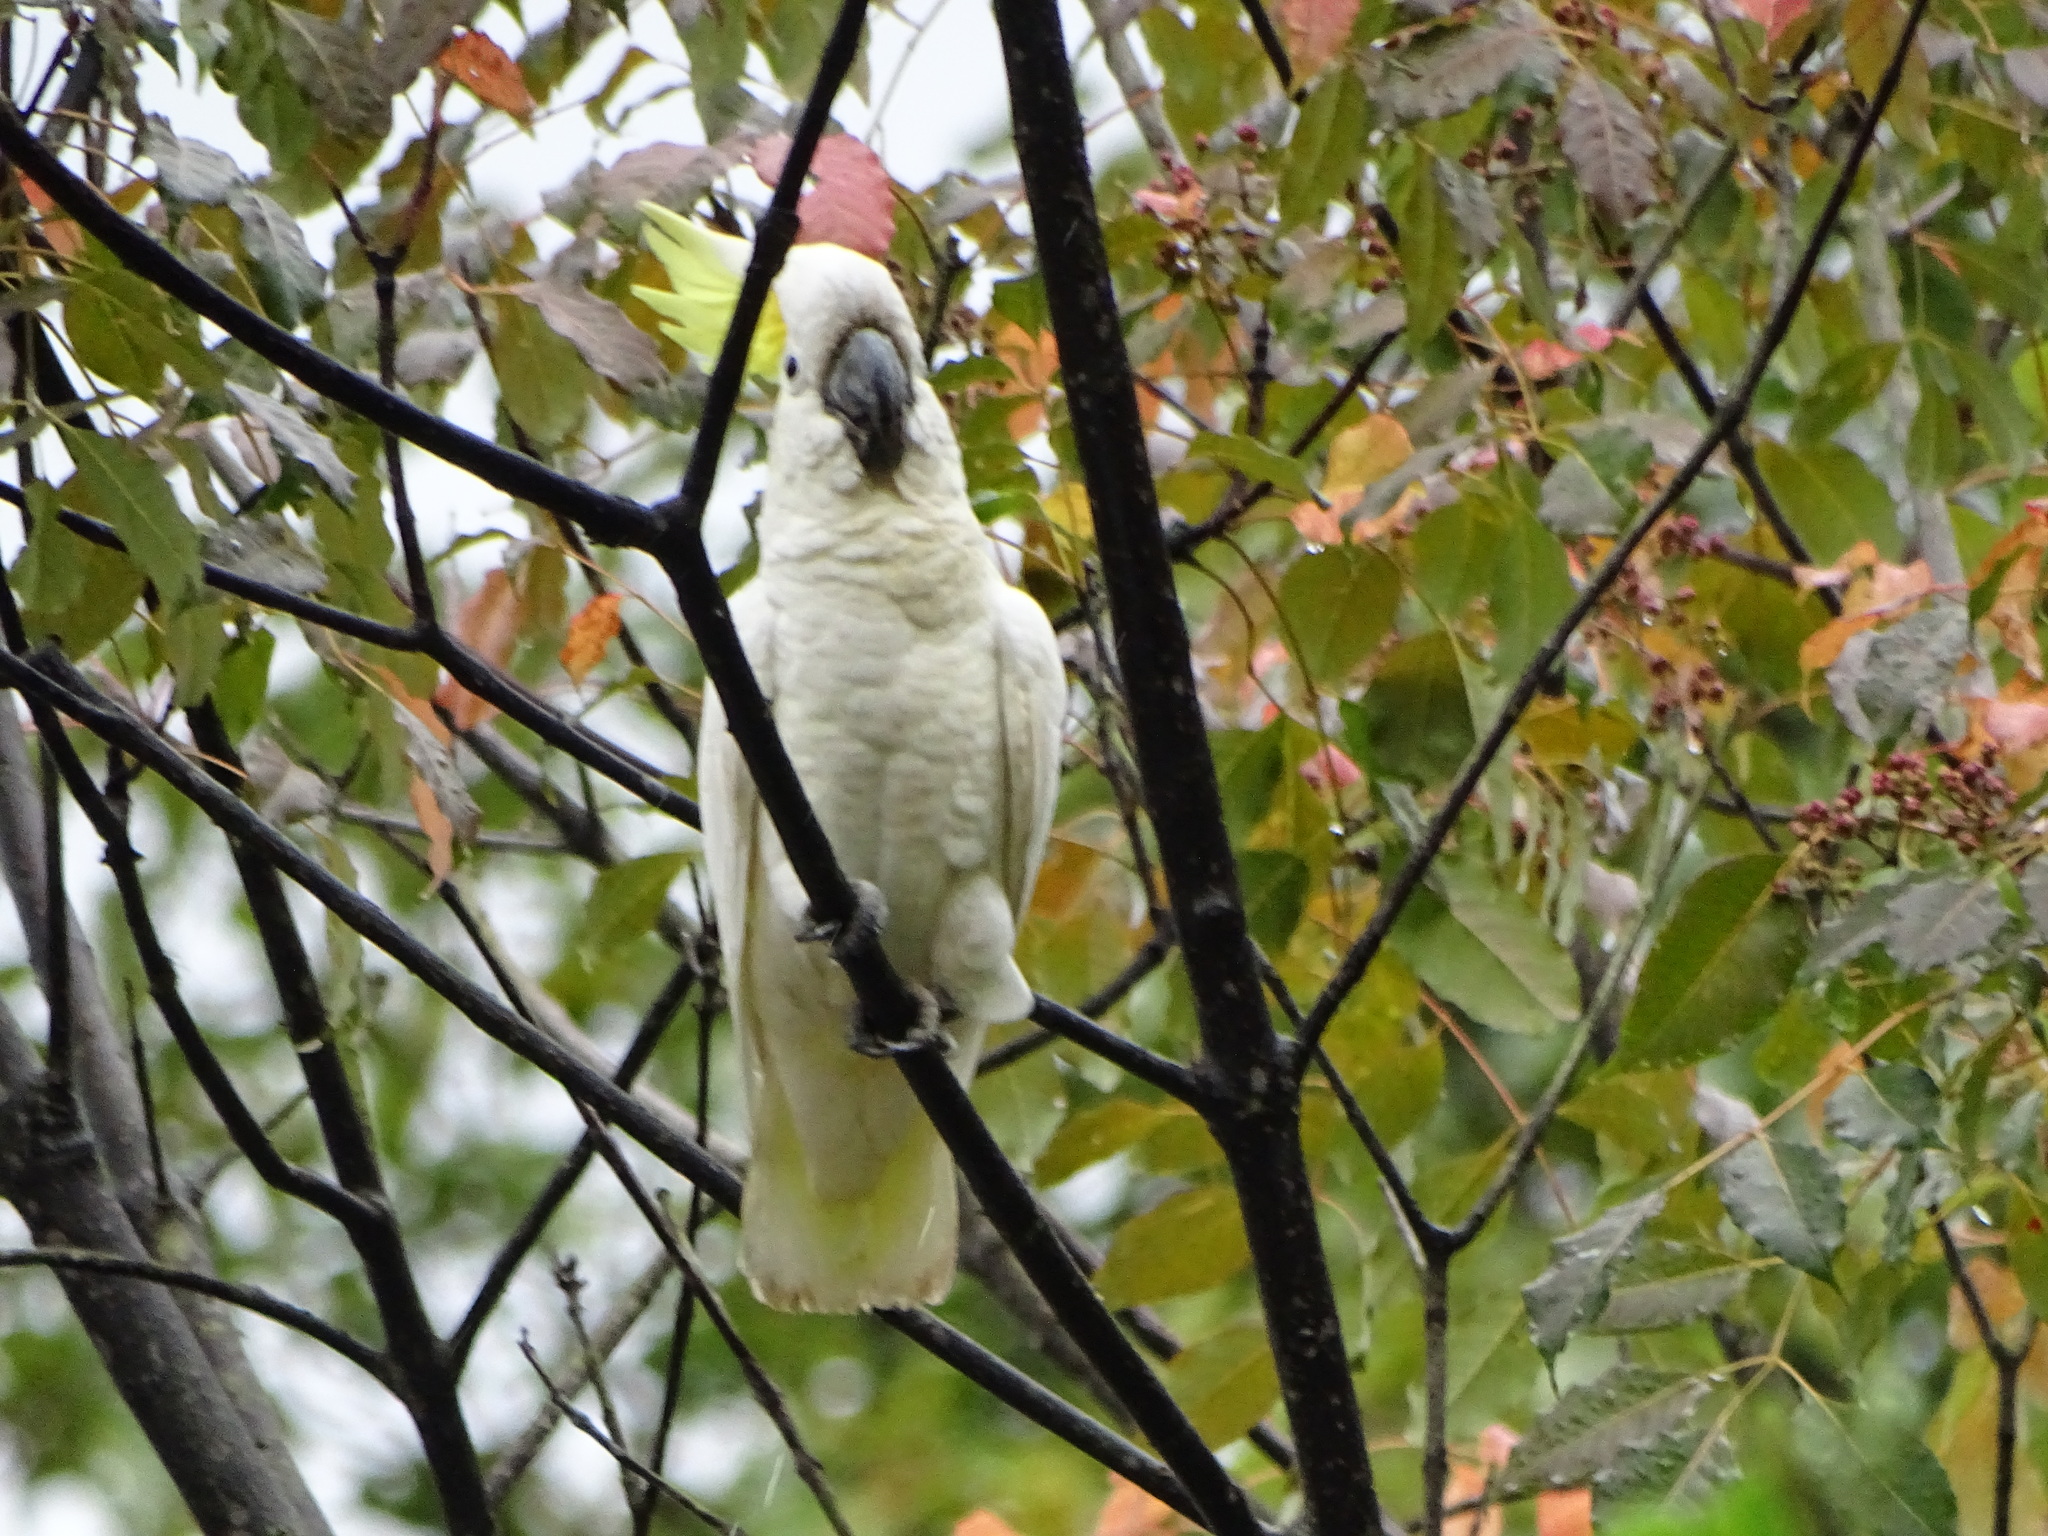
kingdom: Animalia
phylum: Chordata
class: Aves
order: Psittaciformes
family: Psittacidae
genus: Cacatua
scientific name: Cacatua sulphurea
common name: Yellow-crested cockatoo
